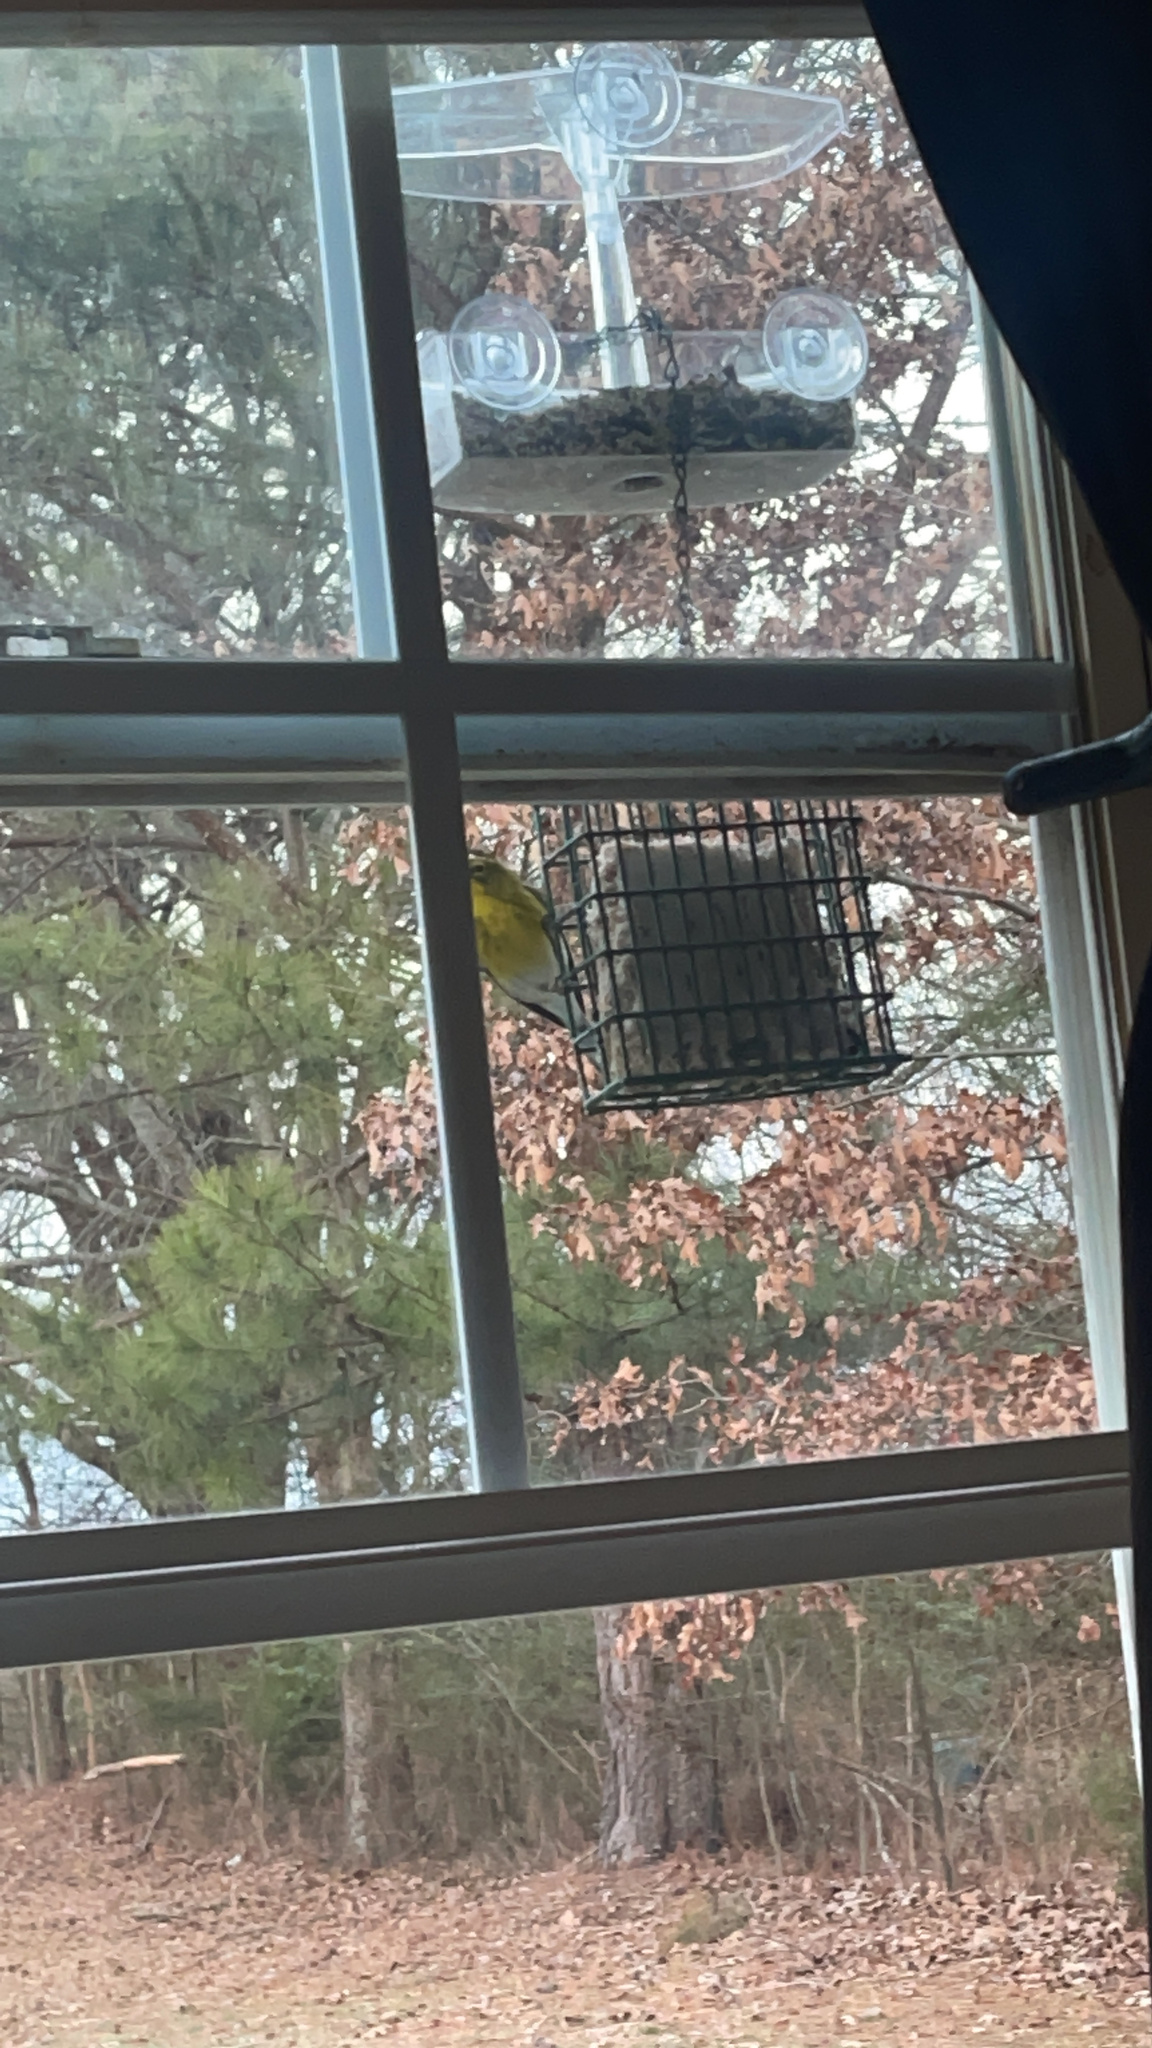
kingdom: Animalia
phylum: Chordata
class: Aves
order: Passeriformes
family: Parulidae
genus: Setophaga
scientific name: Setophaga pinus
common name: Pine warbler
